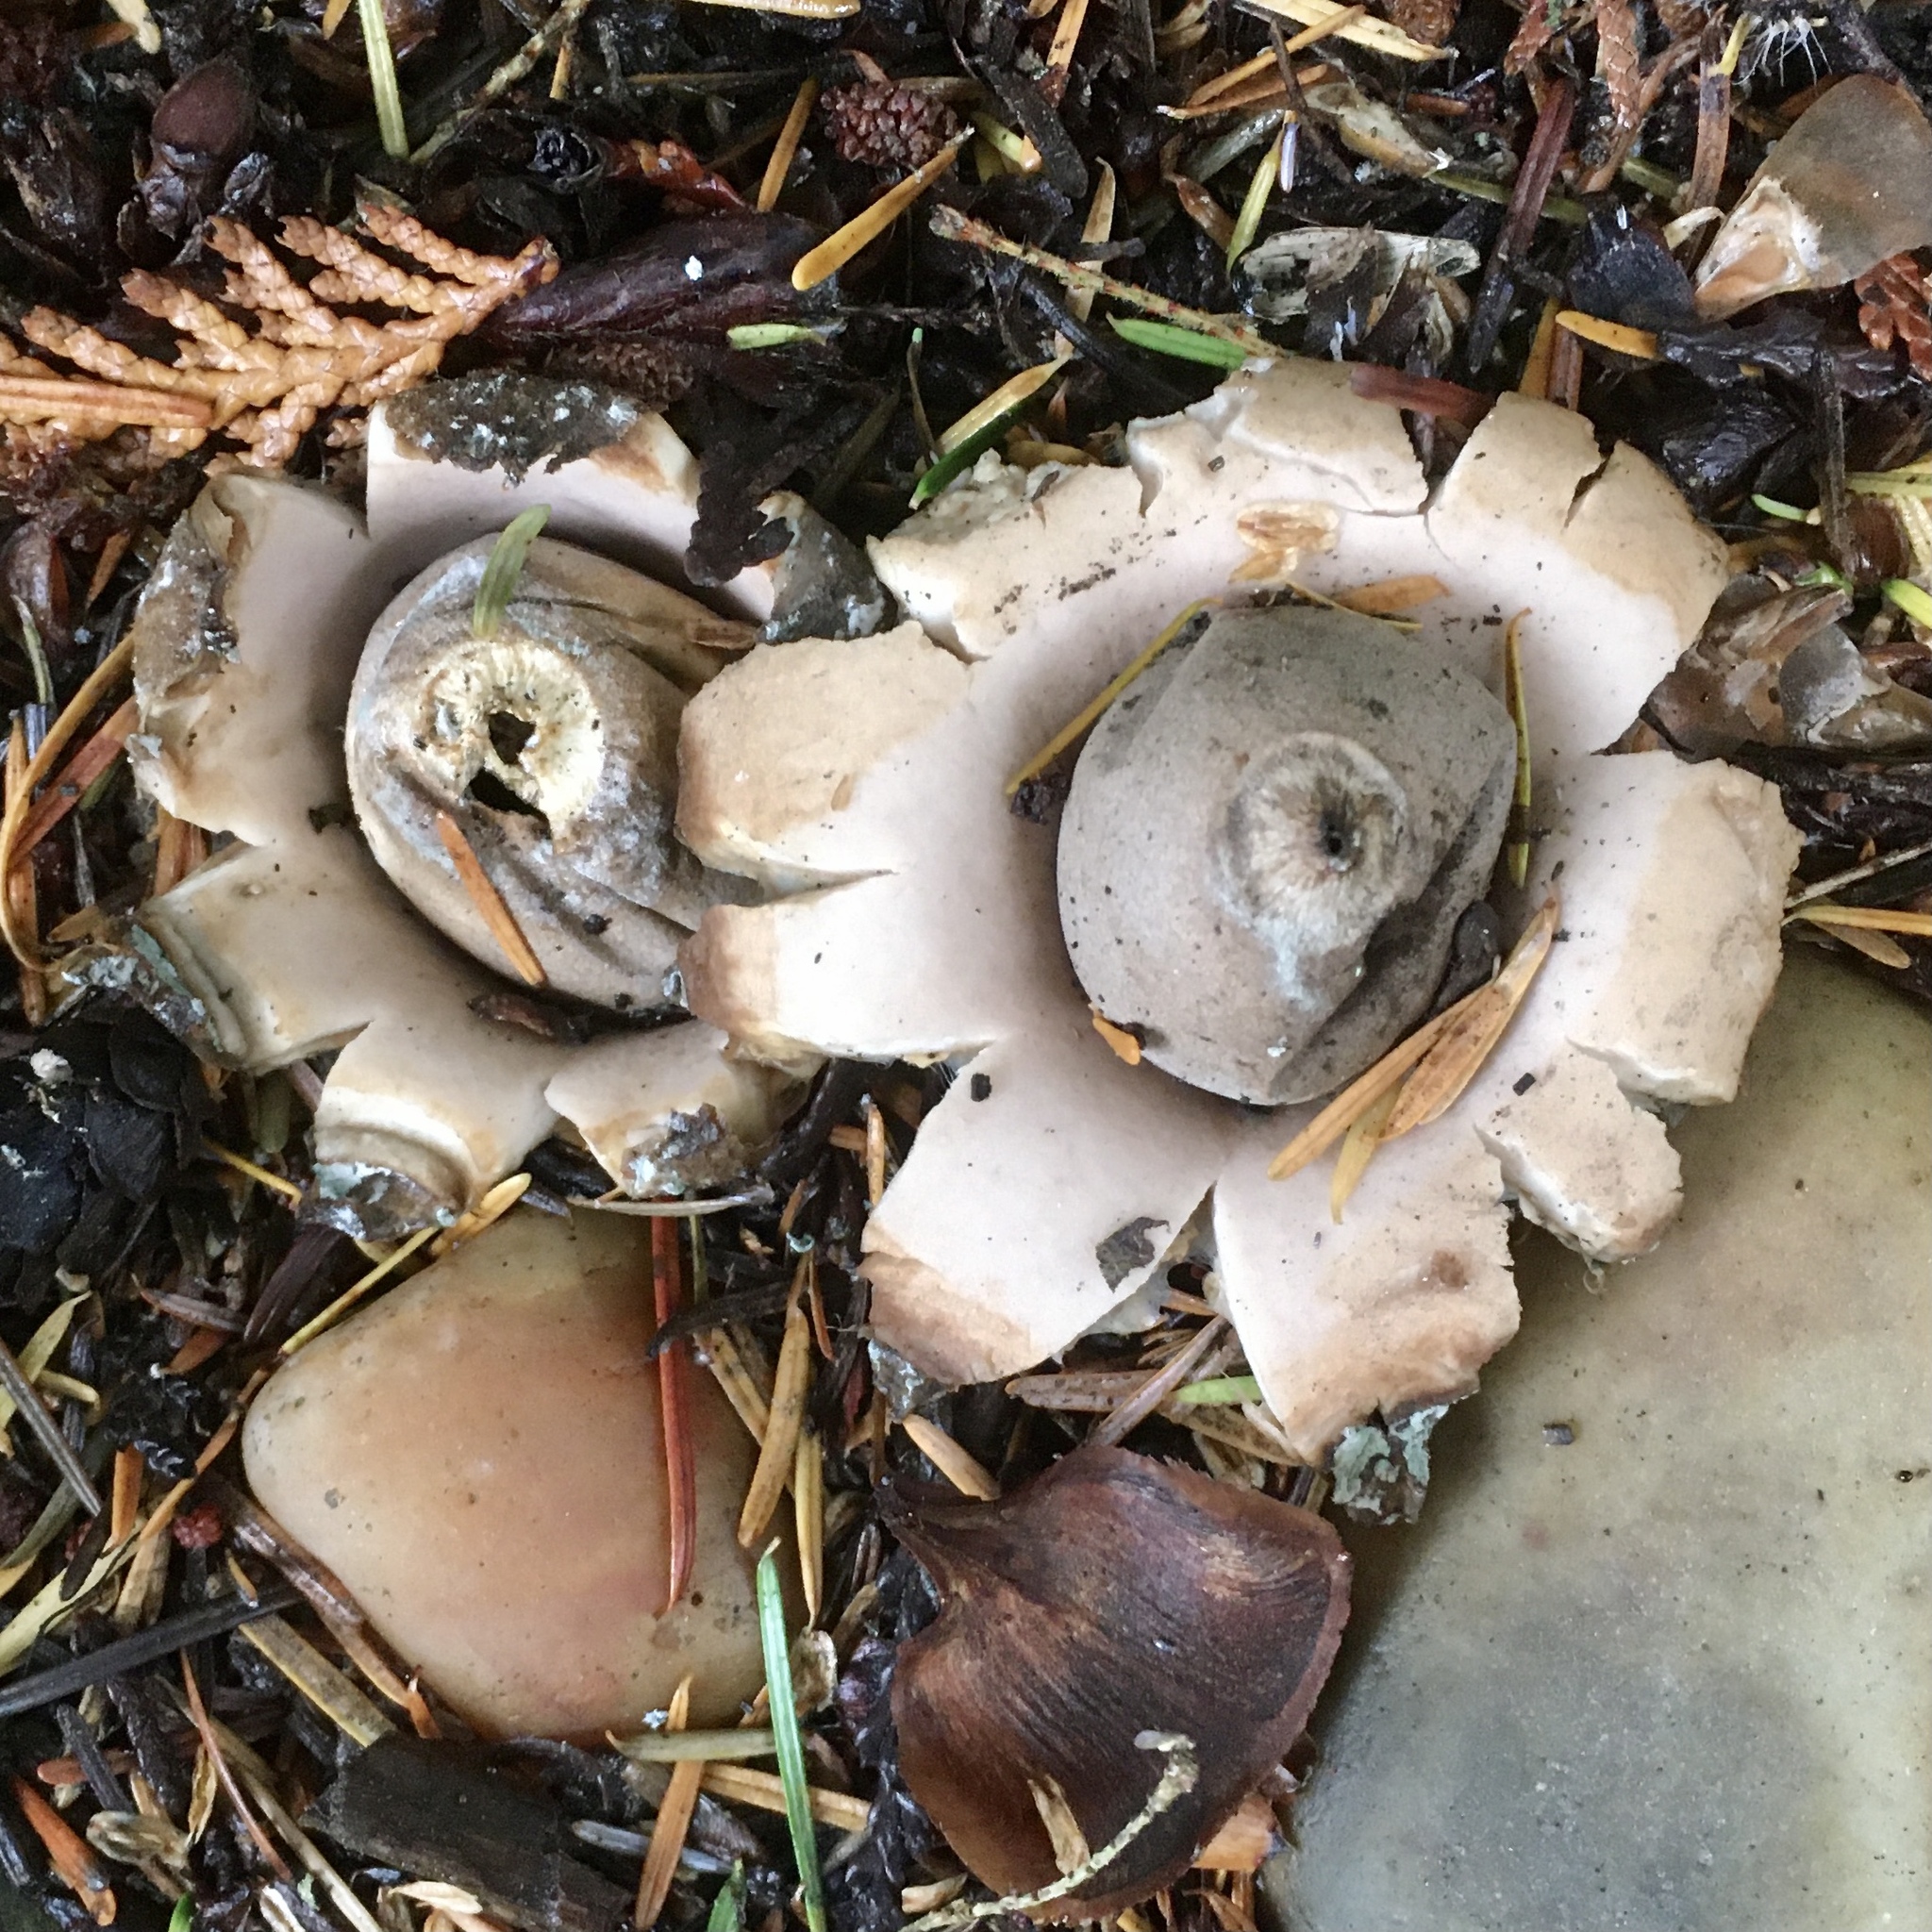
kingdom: Fungi
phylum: Basidiomycota
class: Agaricomycetes
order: Geastrales
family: Geastraceae
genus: Geastrum
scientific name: Geastrum saccatum
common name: Rounded earthstar
